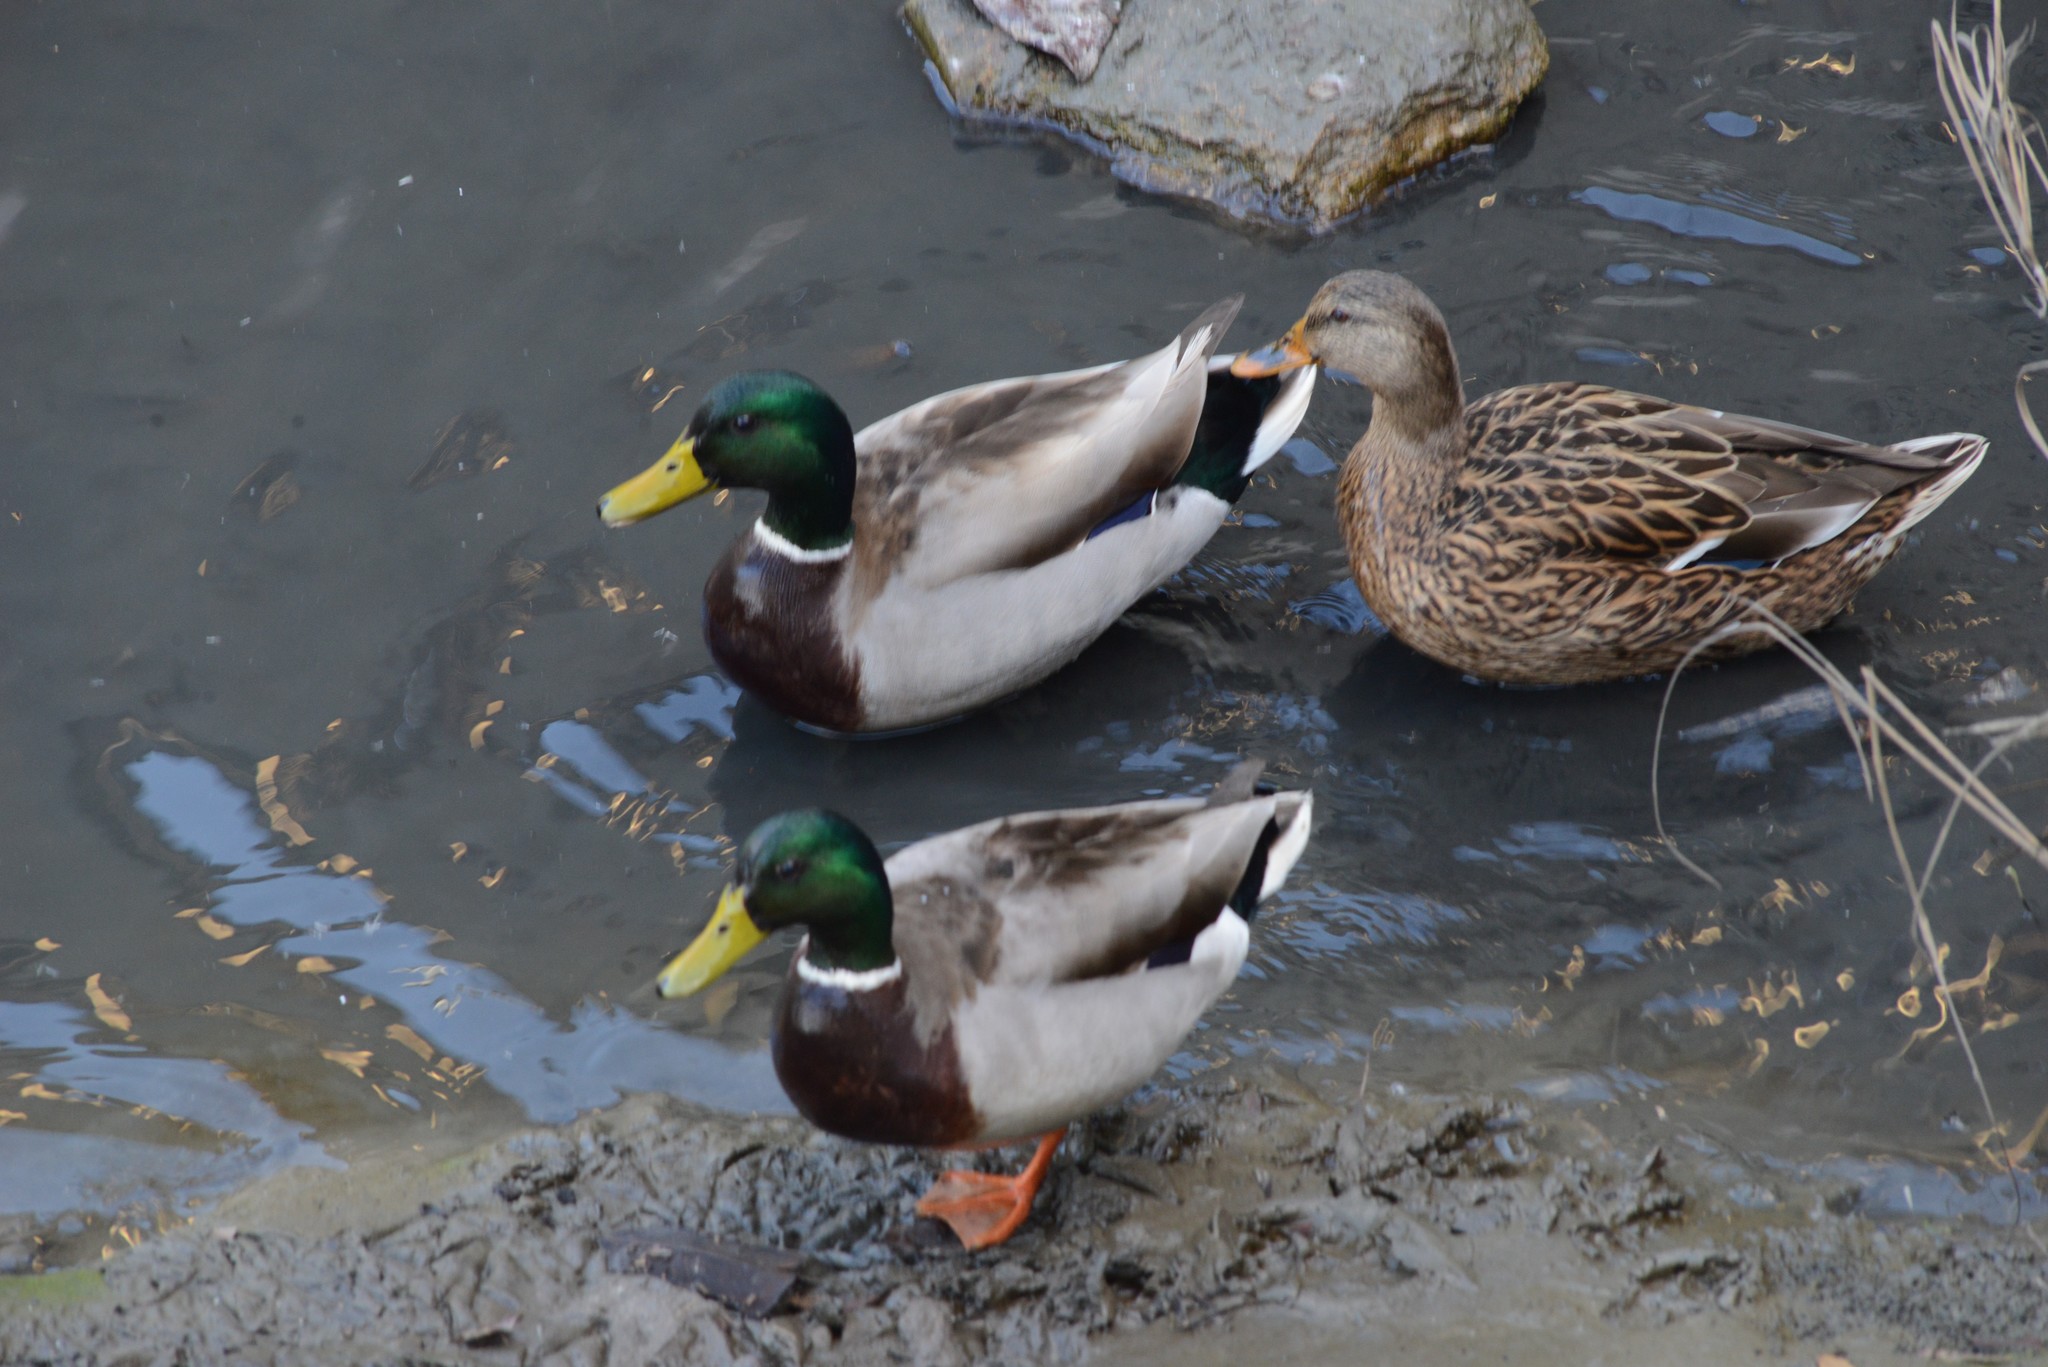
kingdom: Animalia
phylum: Chordata
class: Aves
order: Anseriformes
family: Anatidae
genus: Anas
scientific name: Anas platyrhynchos
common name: Mallard
